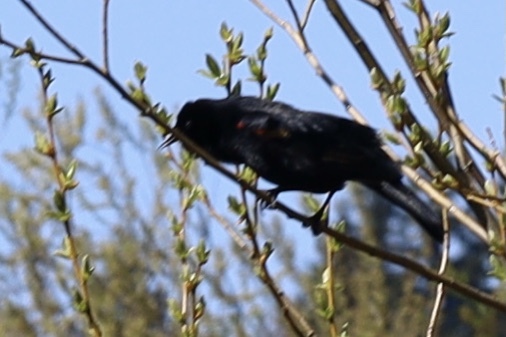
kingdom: Animalia
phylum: Chordata
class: Aves
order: Passeriformes
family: Icteridae
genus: Agelaius
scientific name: Agelaius phoeniceus
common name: Red-winged blackbird
